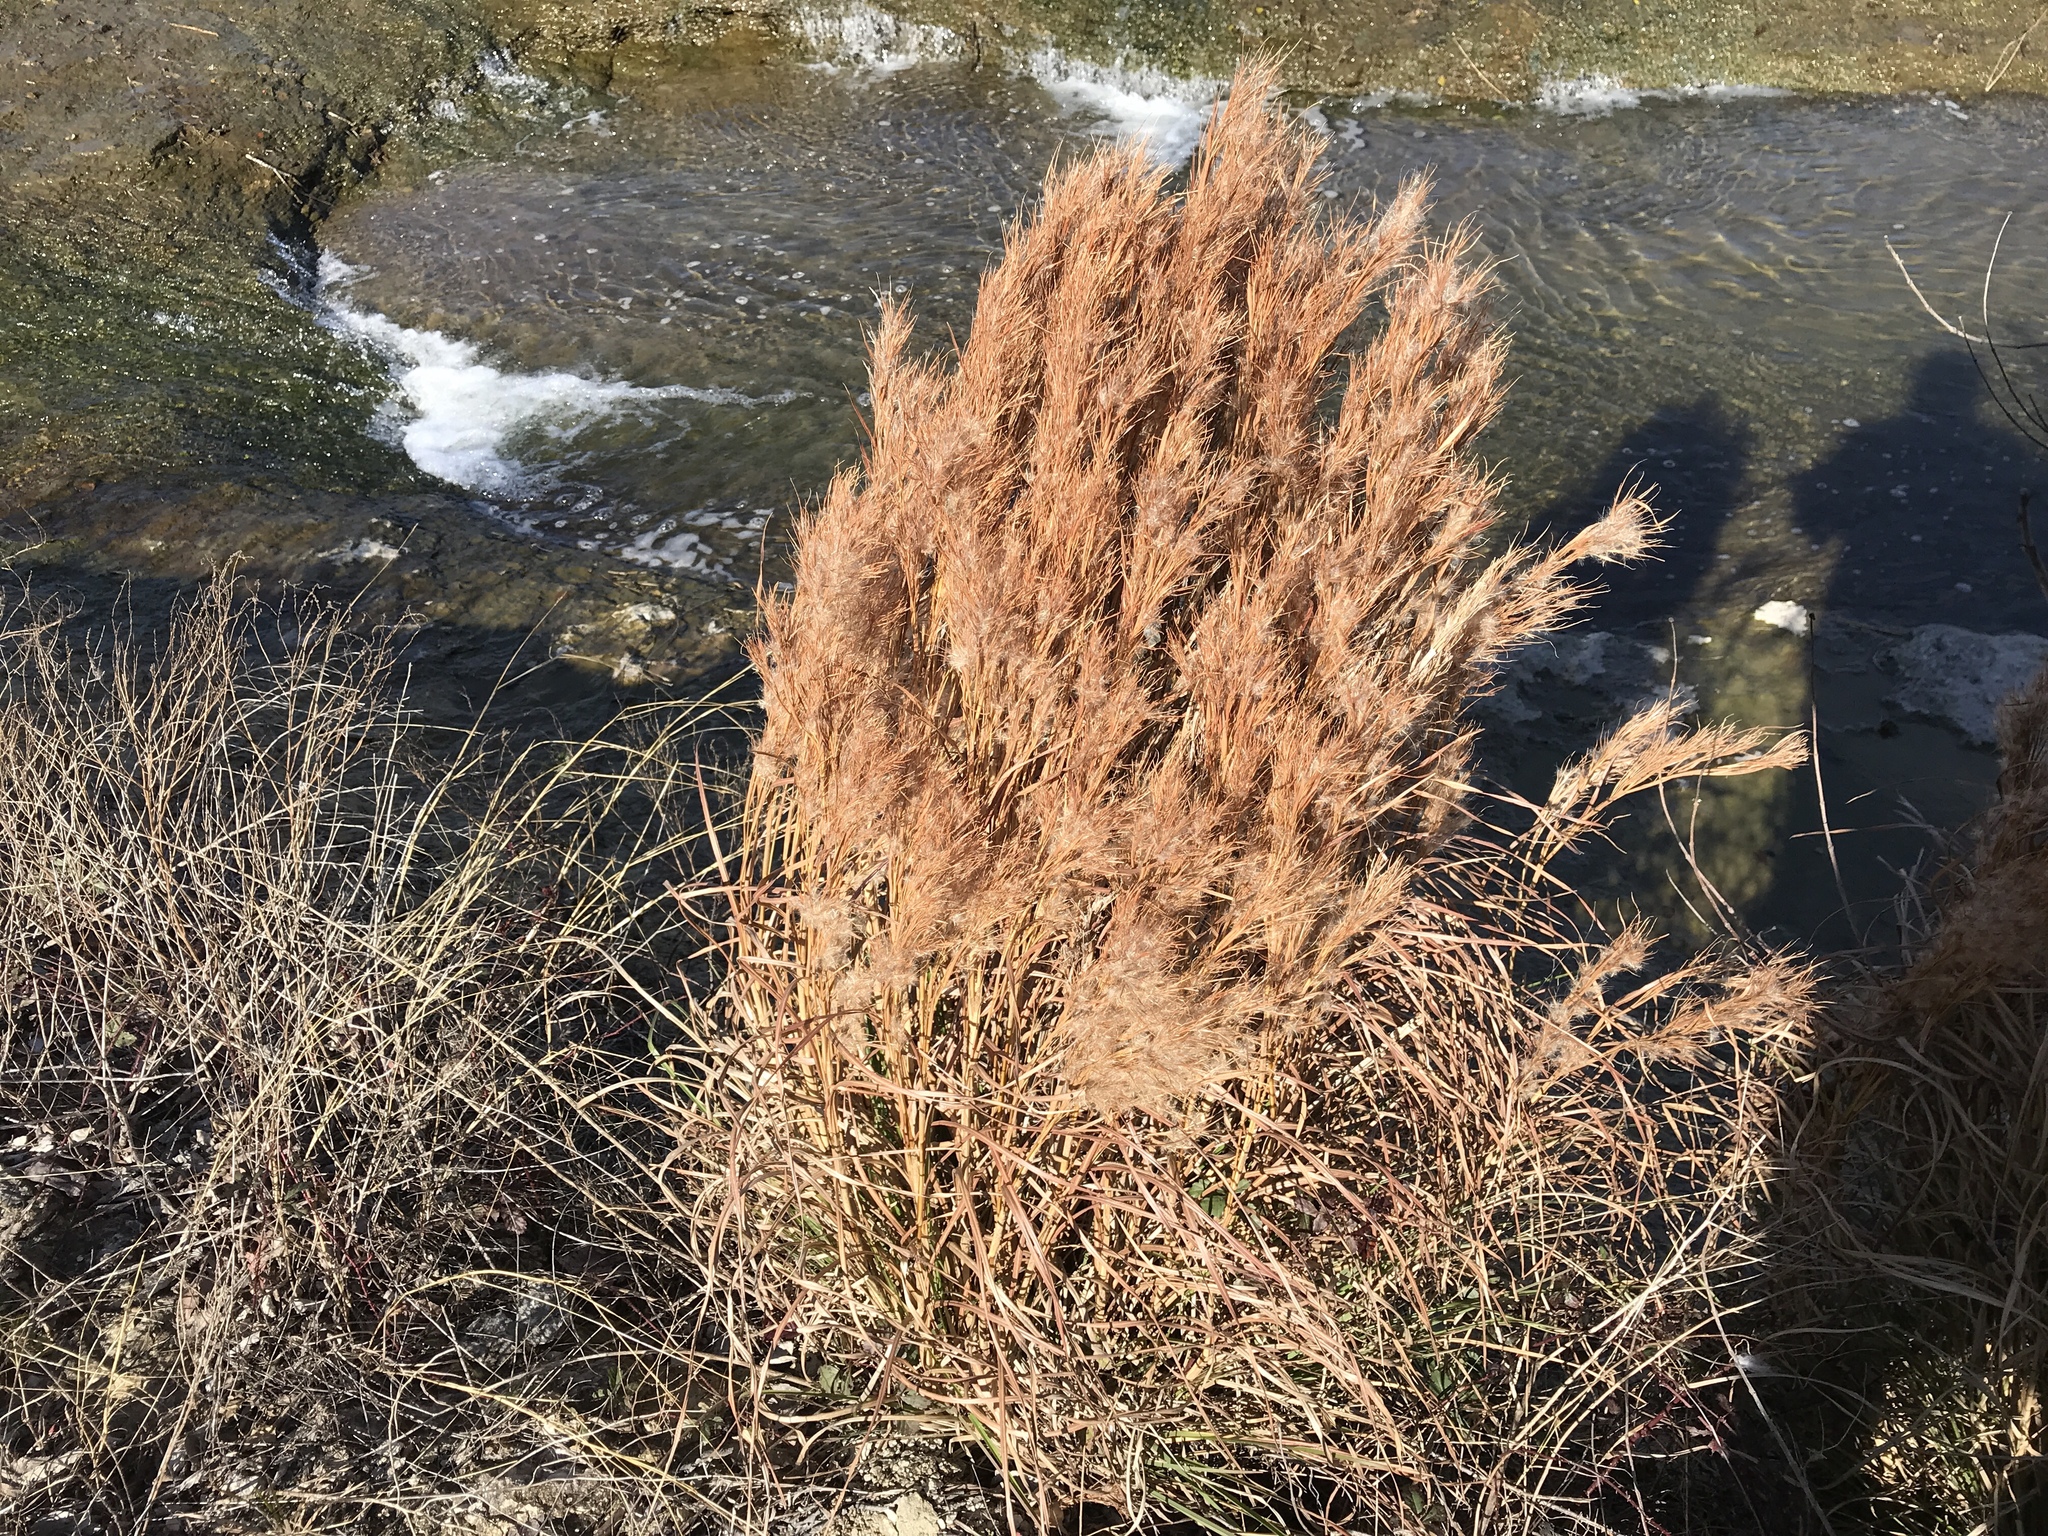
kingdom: Plantae
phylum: Tracheophyta
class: Liliopsida
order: Poales
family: Poaceae
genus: Andropogon
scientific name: Andropogon tenuispatheus
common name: Bushy bluestem
